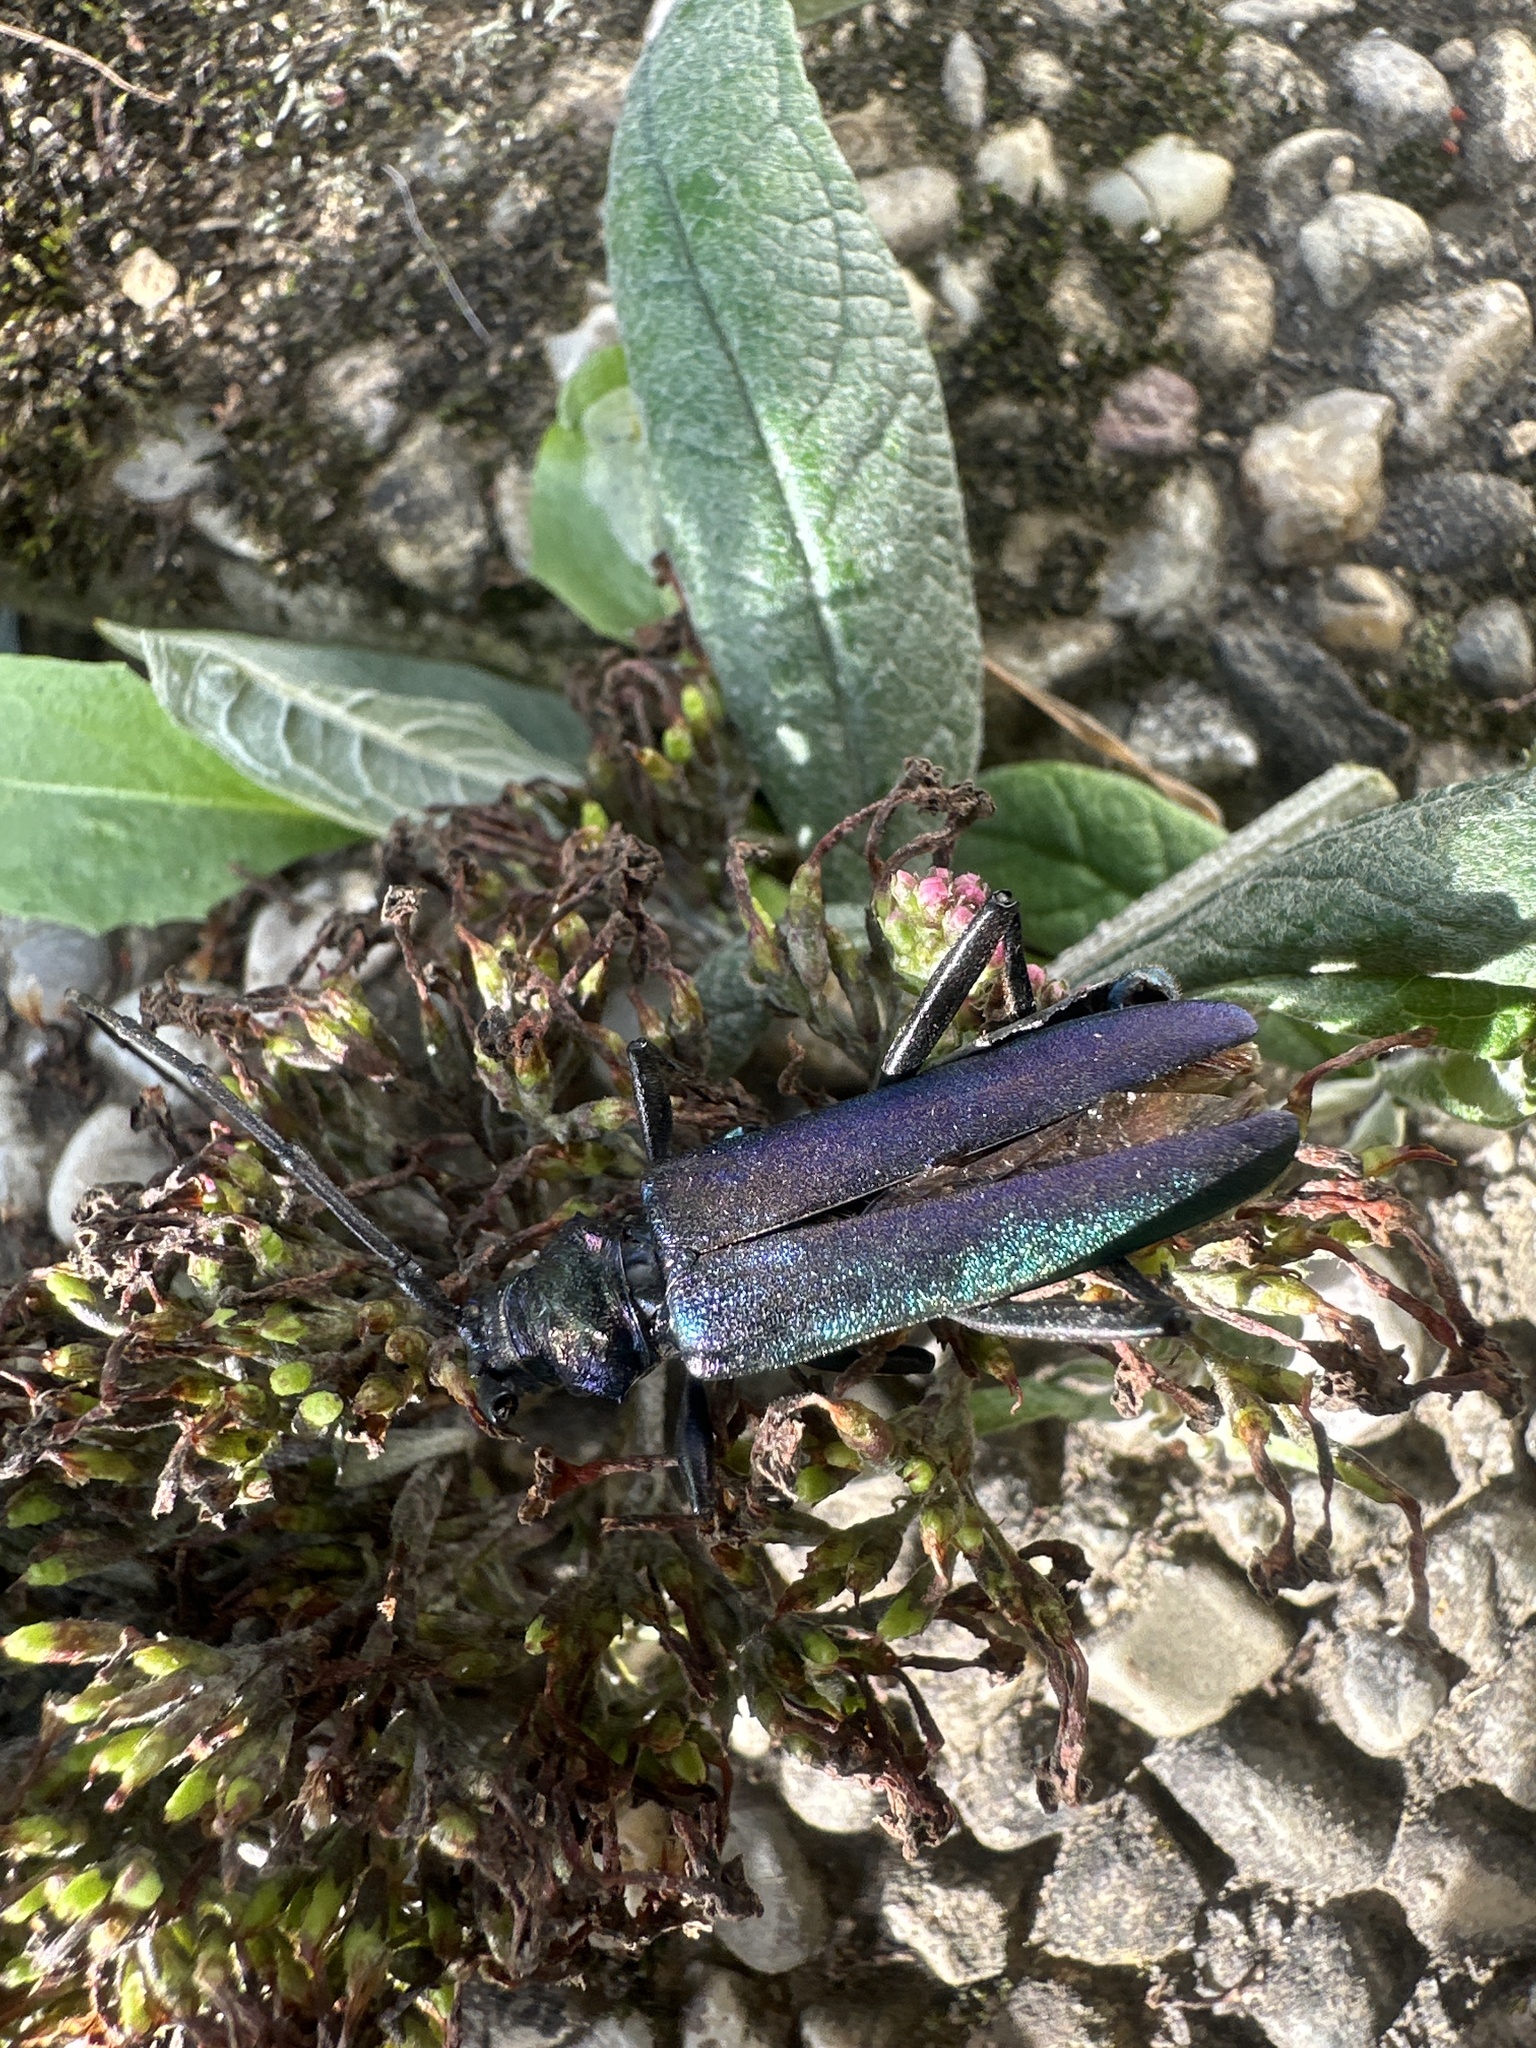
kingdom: Animalia
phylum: Arthropoda
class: Insecta
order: Coleoptera
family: Cerambycidae
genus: Aromia
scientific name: Aromia moschata
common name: Musk beetle
